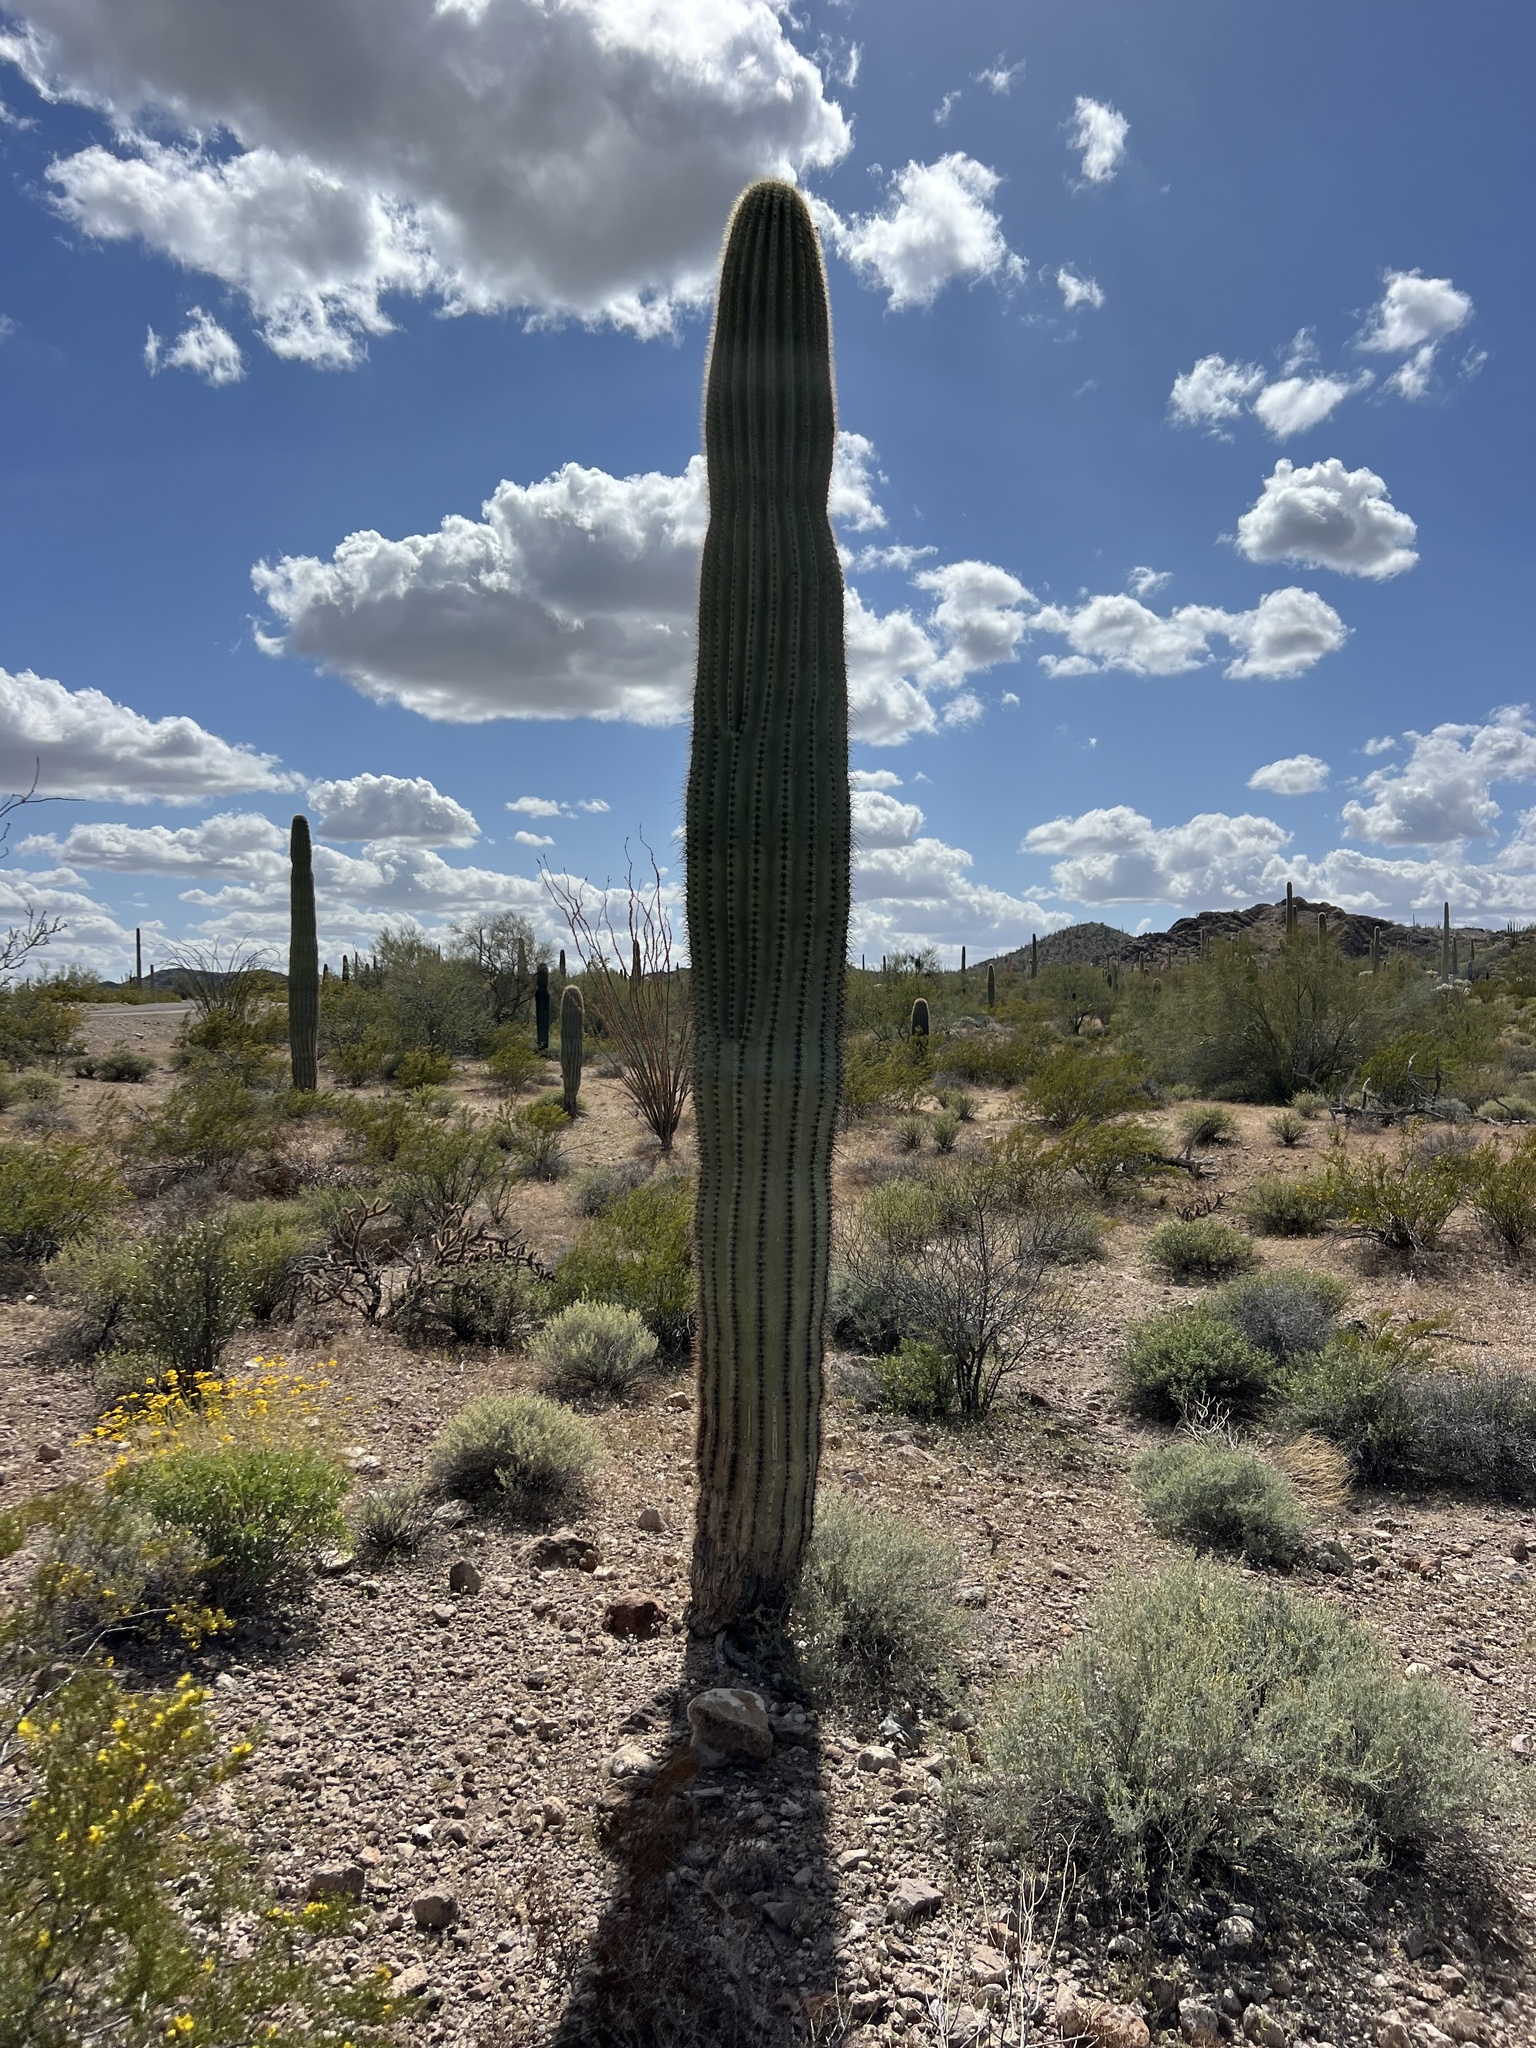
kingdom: Plantae
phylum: Tracheophyta
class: Magnoliopsida
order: Caryophyllales
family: Cactaceae
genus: Carnegiea
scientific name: Carnegiea gigantea
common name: Saguaro
